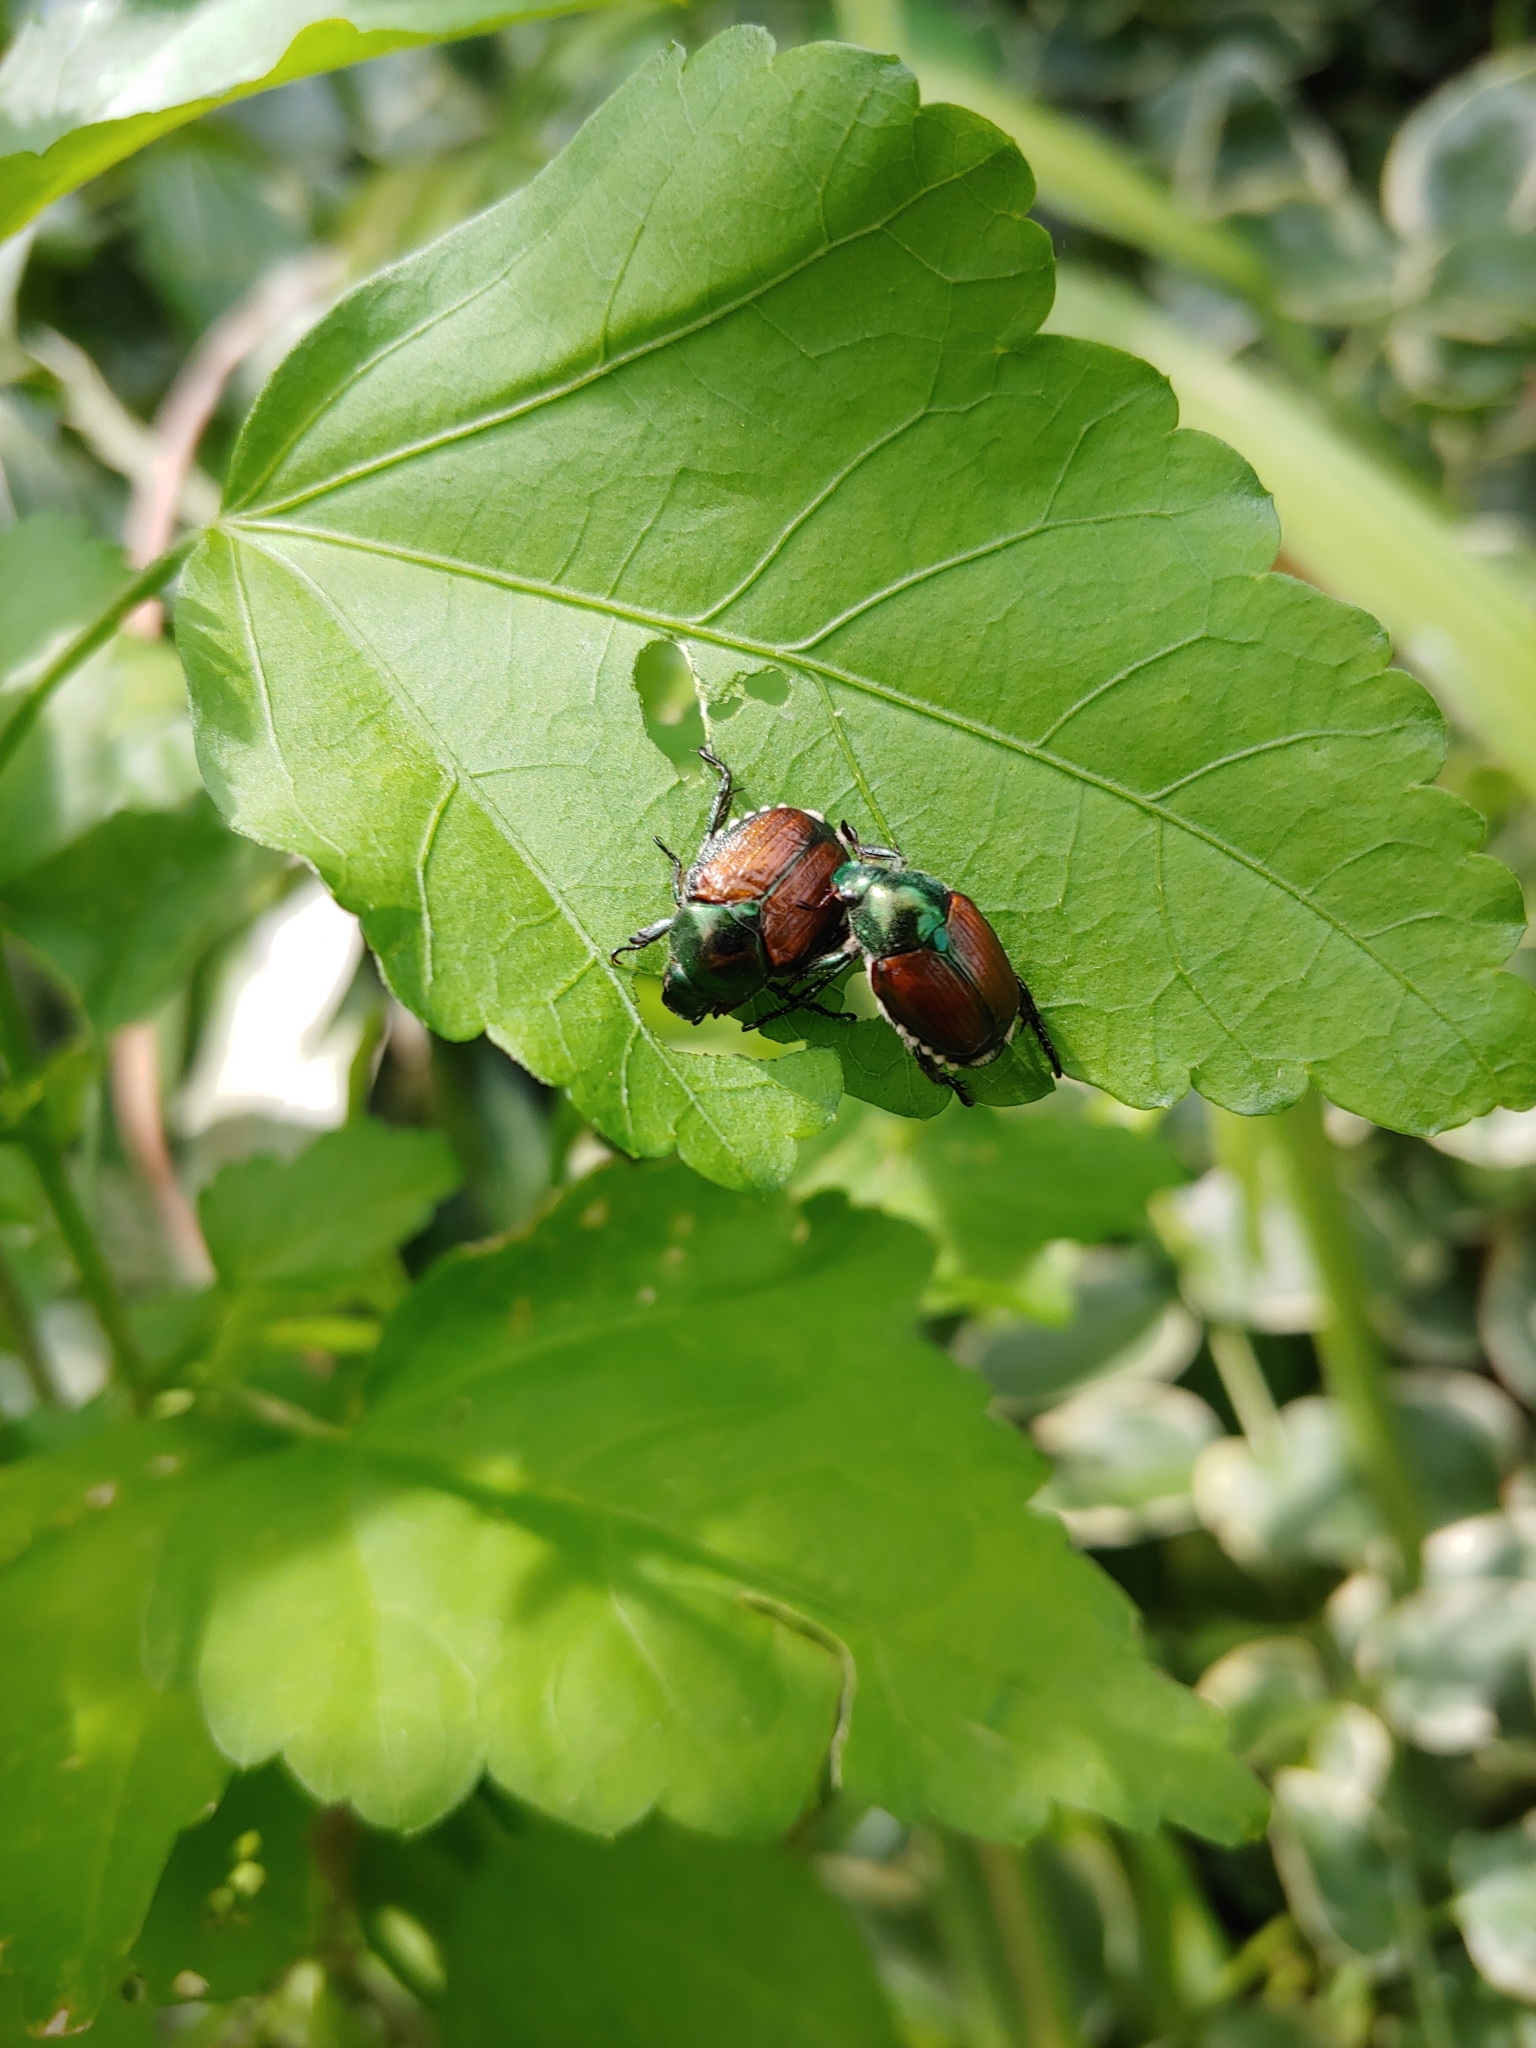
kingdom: Animalia
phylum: Arthropoda
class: Insecta
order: Coleoptera
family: Scarabaeidae
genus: Popillia
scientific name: Popillia japonica
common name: Japanese beetle
